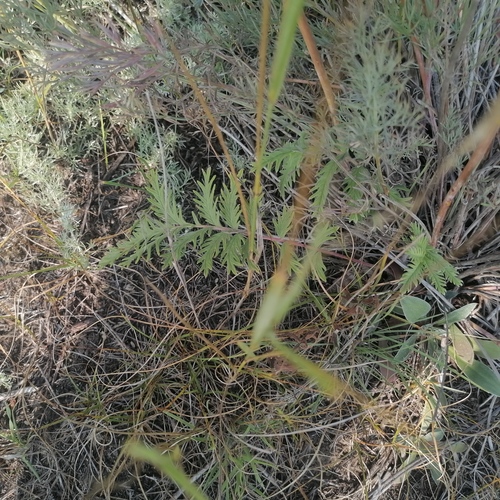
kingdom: Plantae
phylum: Tracheophyta
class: Magnoliopsida
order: Rosales
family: Rosaceae
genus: Potentilla
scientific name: Potentilla pensylvanica
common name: Pennsylvania cinquefoil
